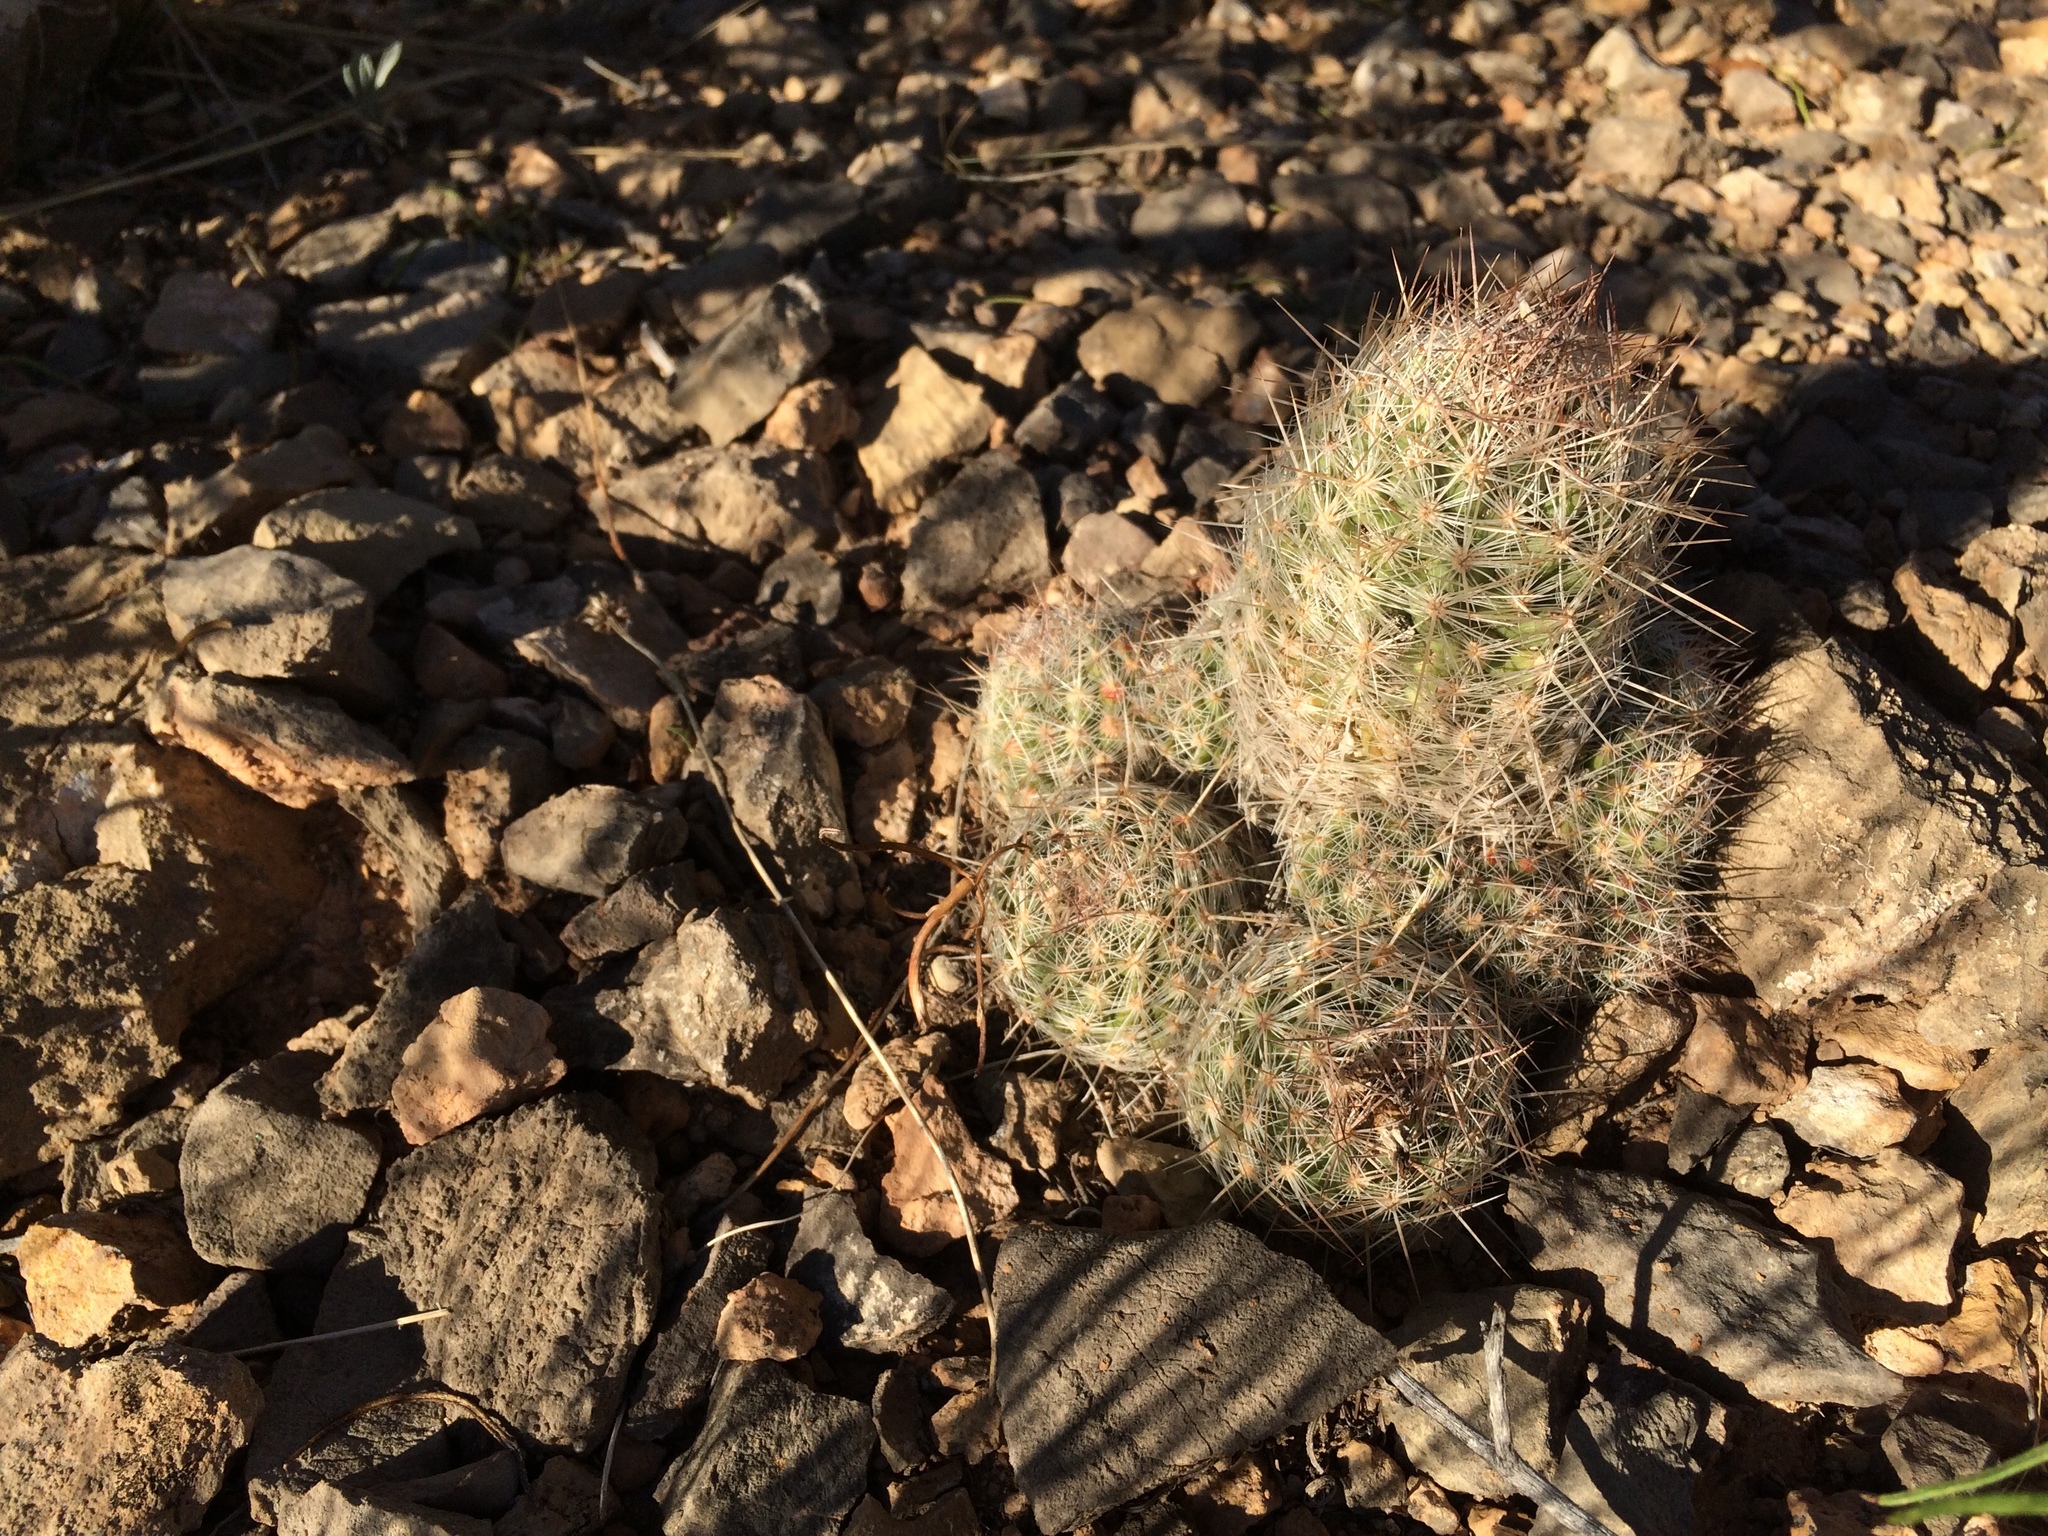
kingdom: Plantae
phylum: Tracheophyta
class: Magnoliopsida
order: Caryophyllales
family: Cactaceae
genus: Pelecyphora
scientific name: Pelecyphora tuberculosa
